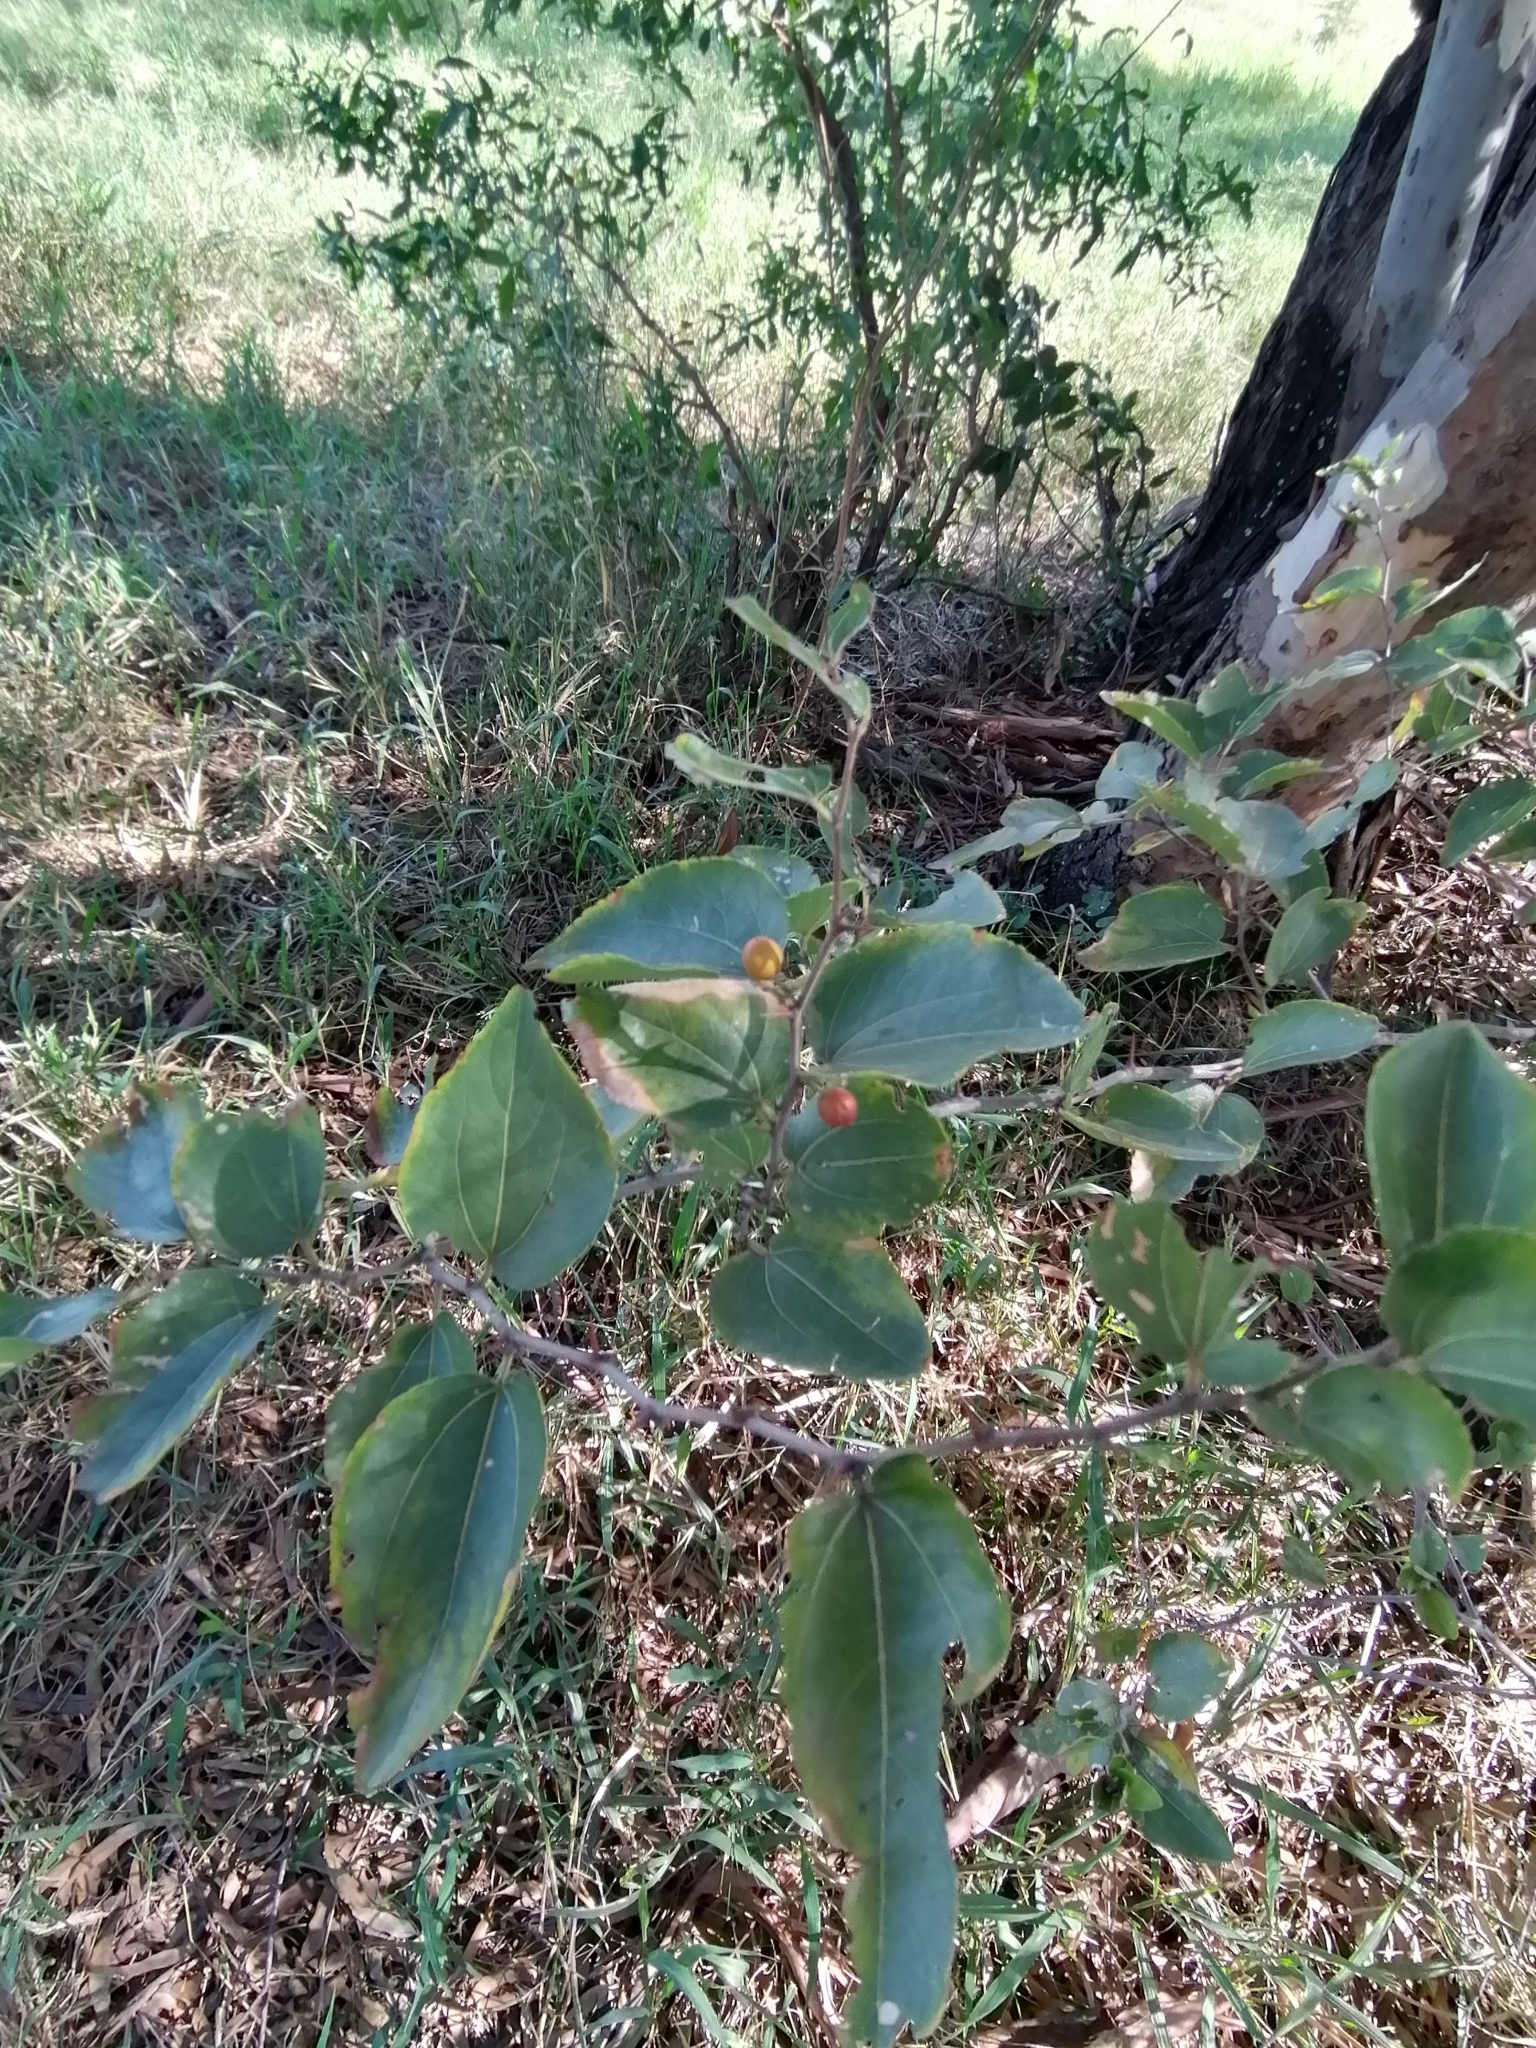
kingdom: Plantae
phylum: Tracheophyta
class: Magnoliopsida
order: Rosales
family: Rhamnaceae
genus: Ziziphus
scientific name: Ziziphus mucronata
